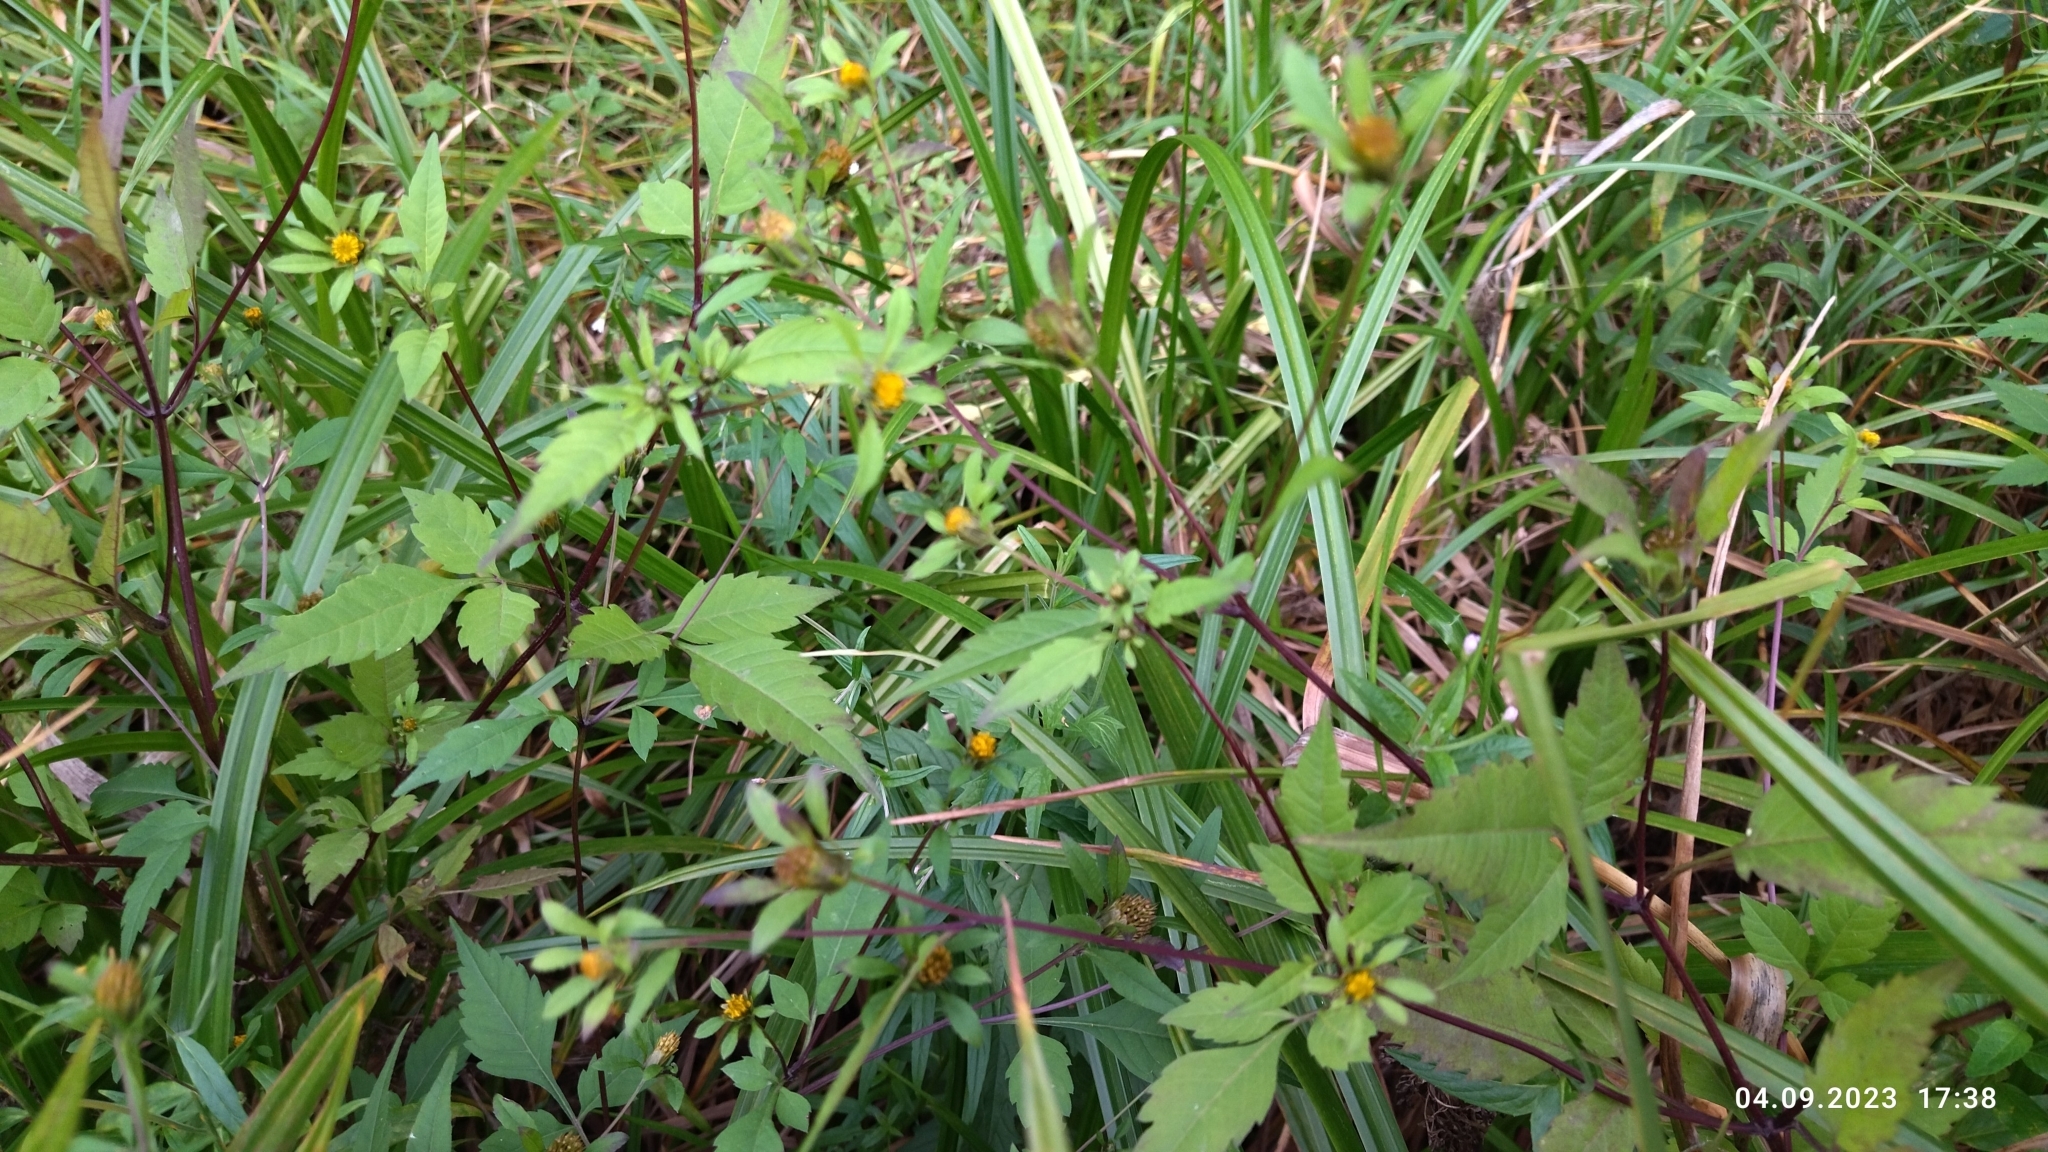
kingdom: Plantae
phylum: Tracheophyta
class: Magnoliopsida
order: Asterales
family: Asteraceae
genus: Bidens
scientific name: Bidens frondosa
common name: Beggarticks
